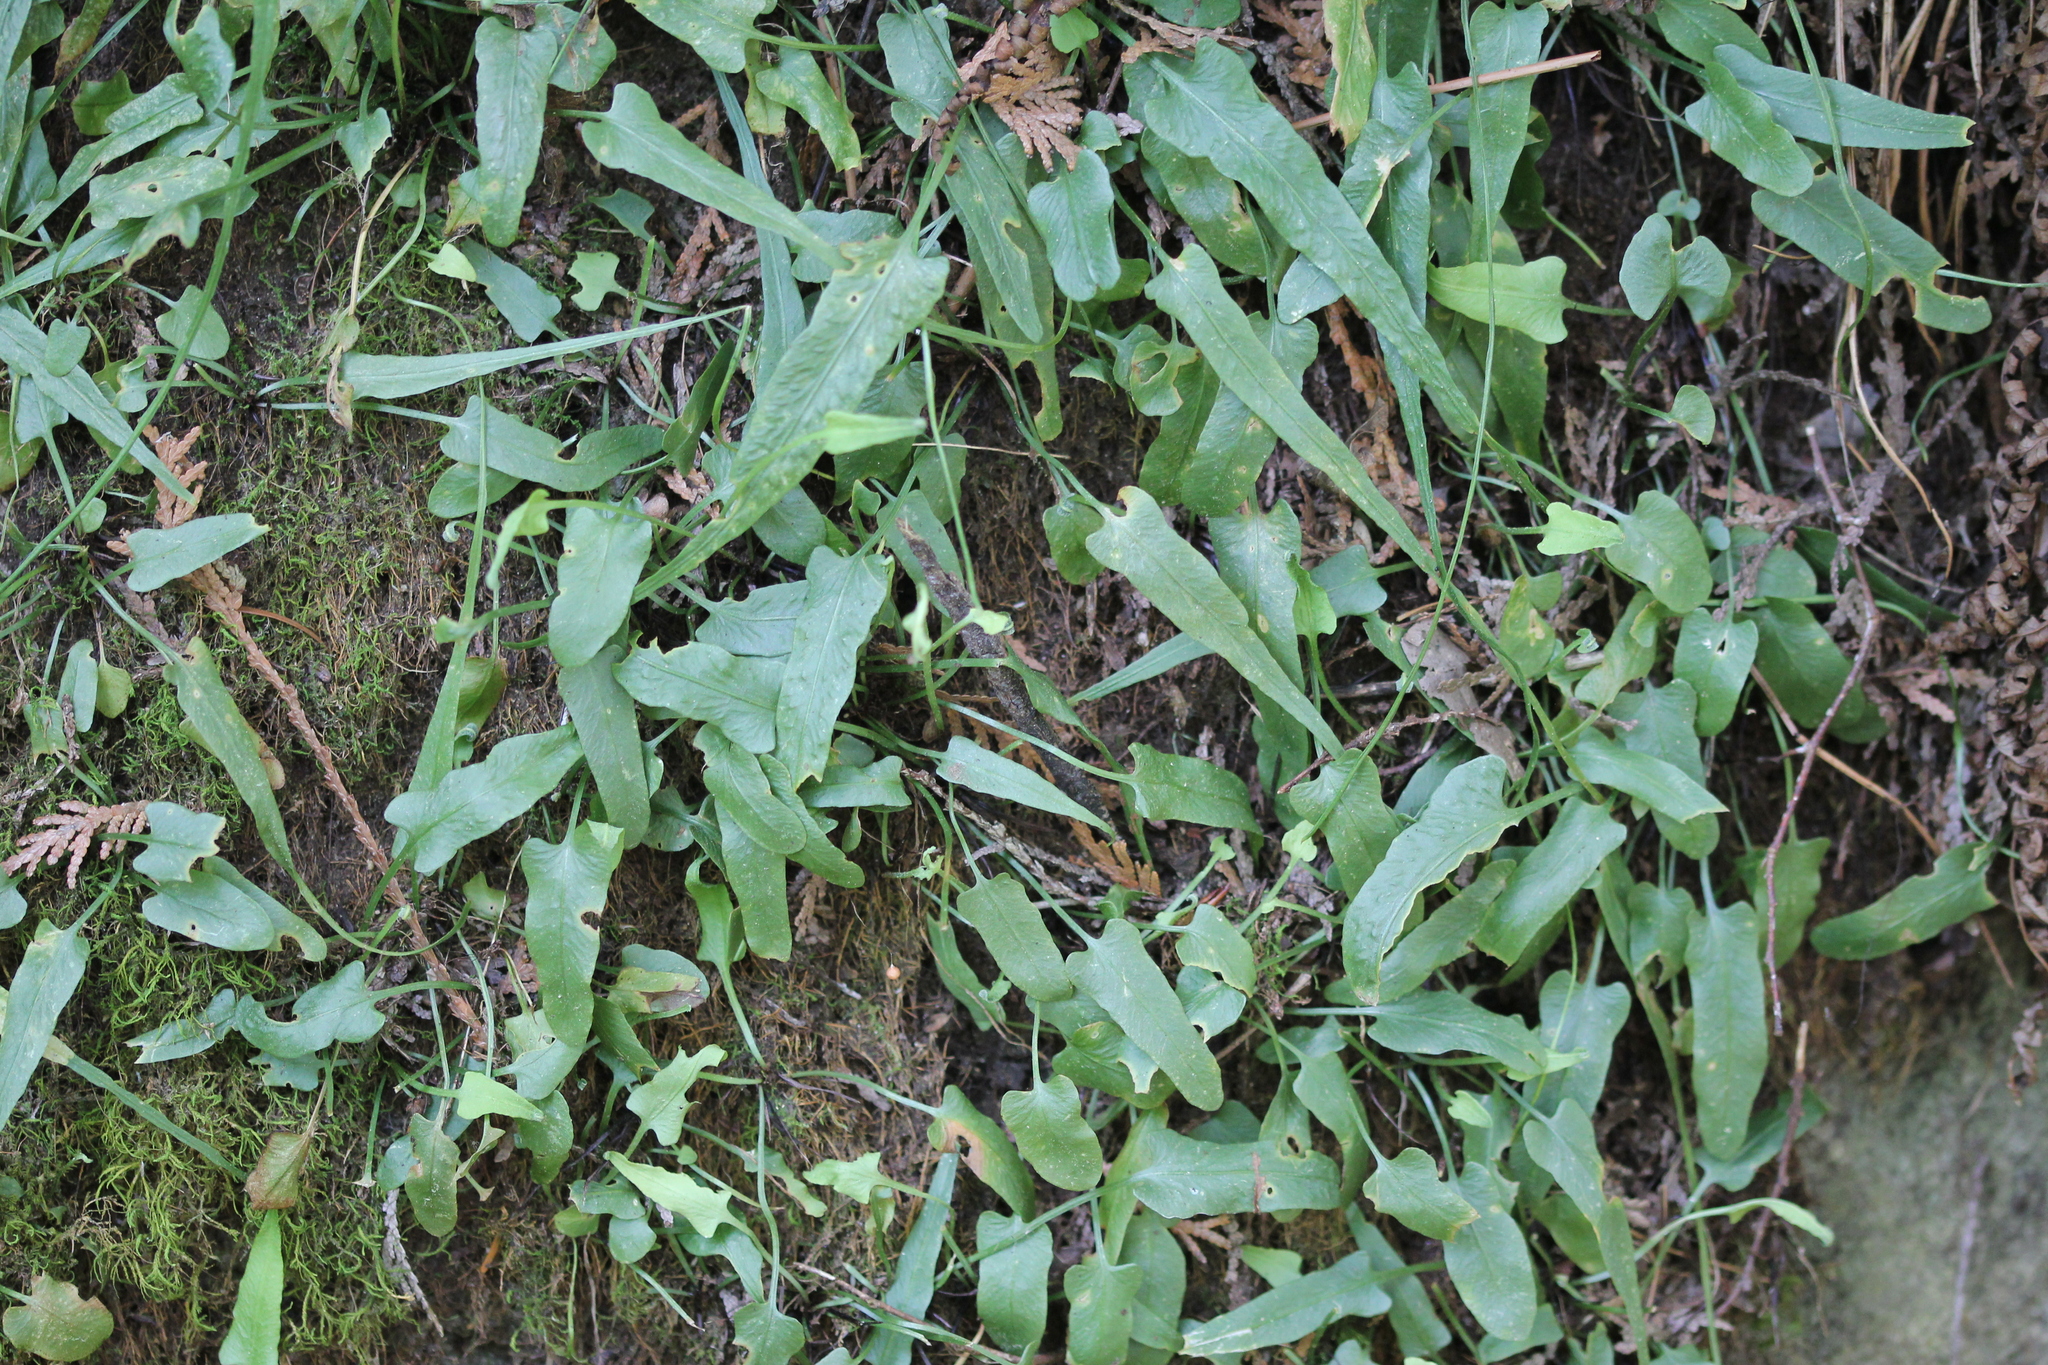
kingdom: Plantae
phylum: Tracheophyta
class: Polypodiopsida
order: Polypodiales
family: Aspleniaceae
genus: Asplenium
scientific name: Asplenium rhizophyllum
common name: Walking fern
